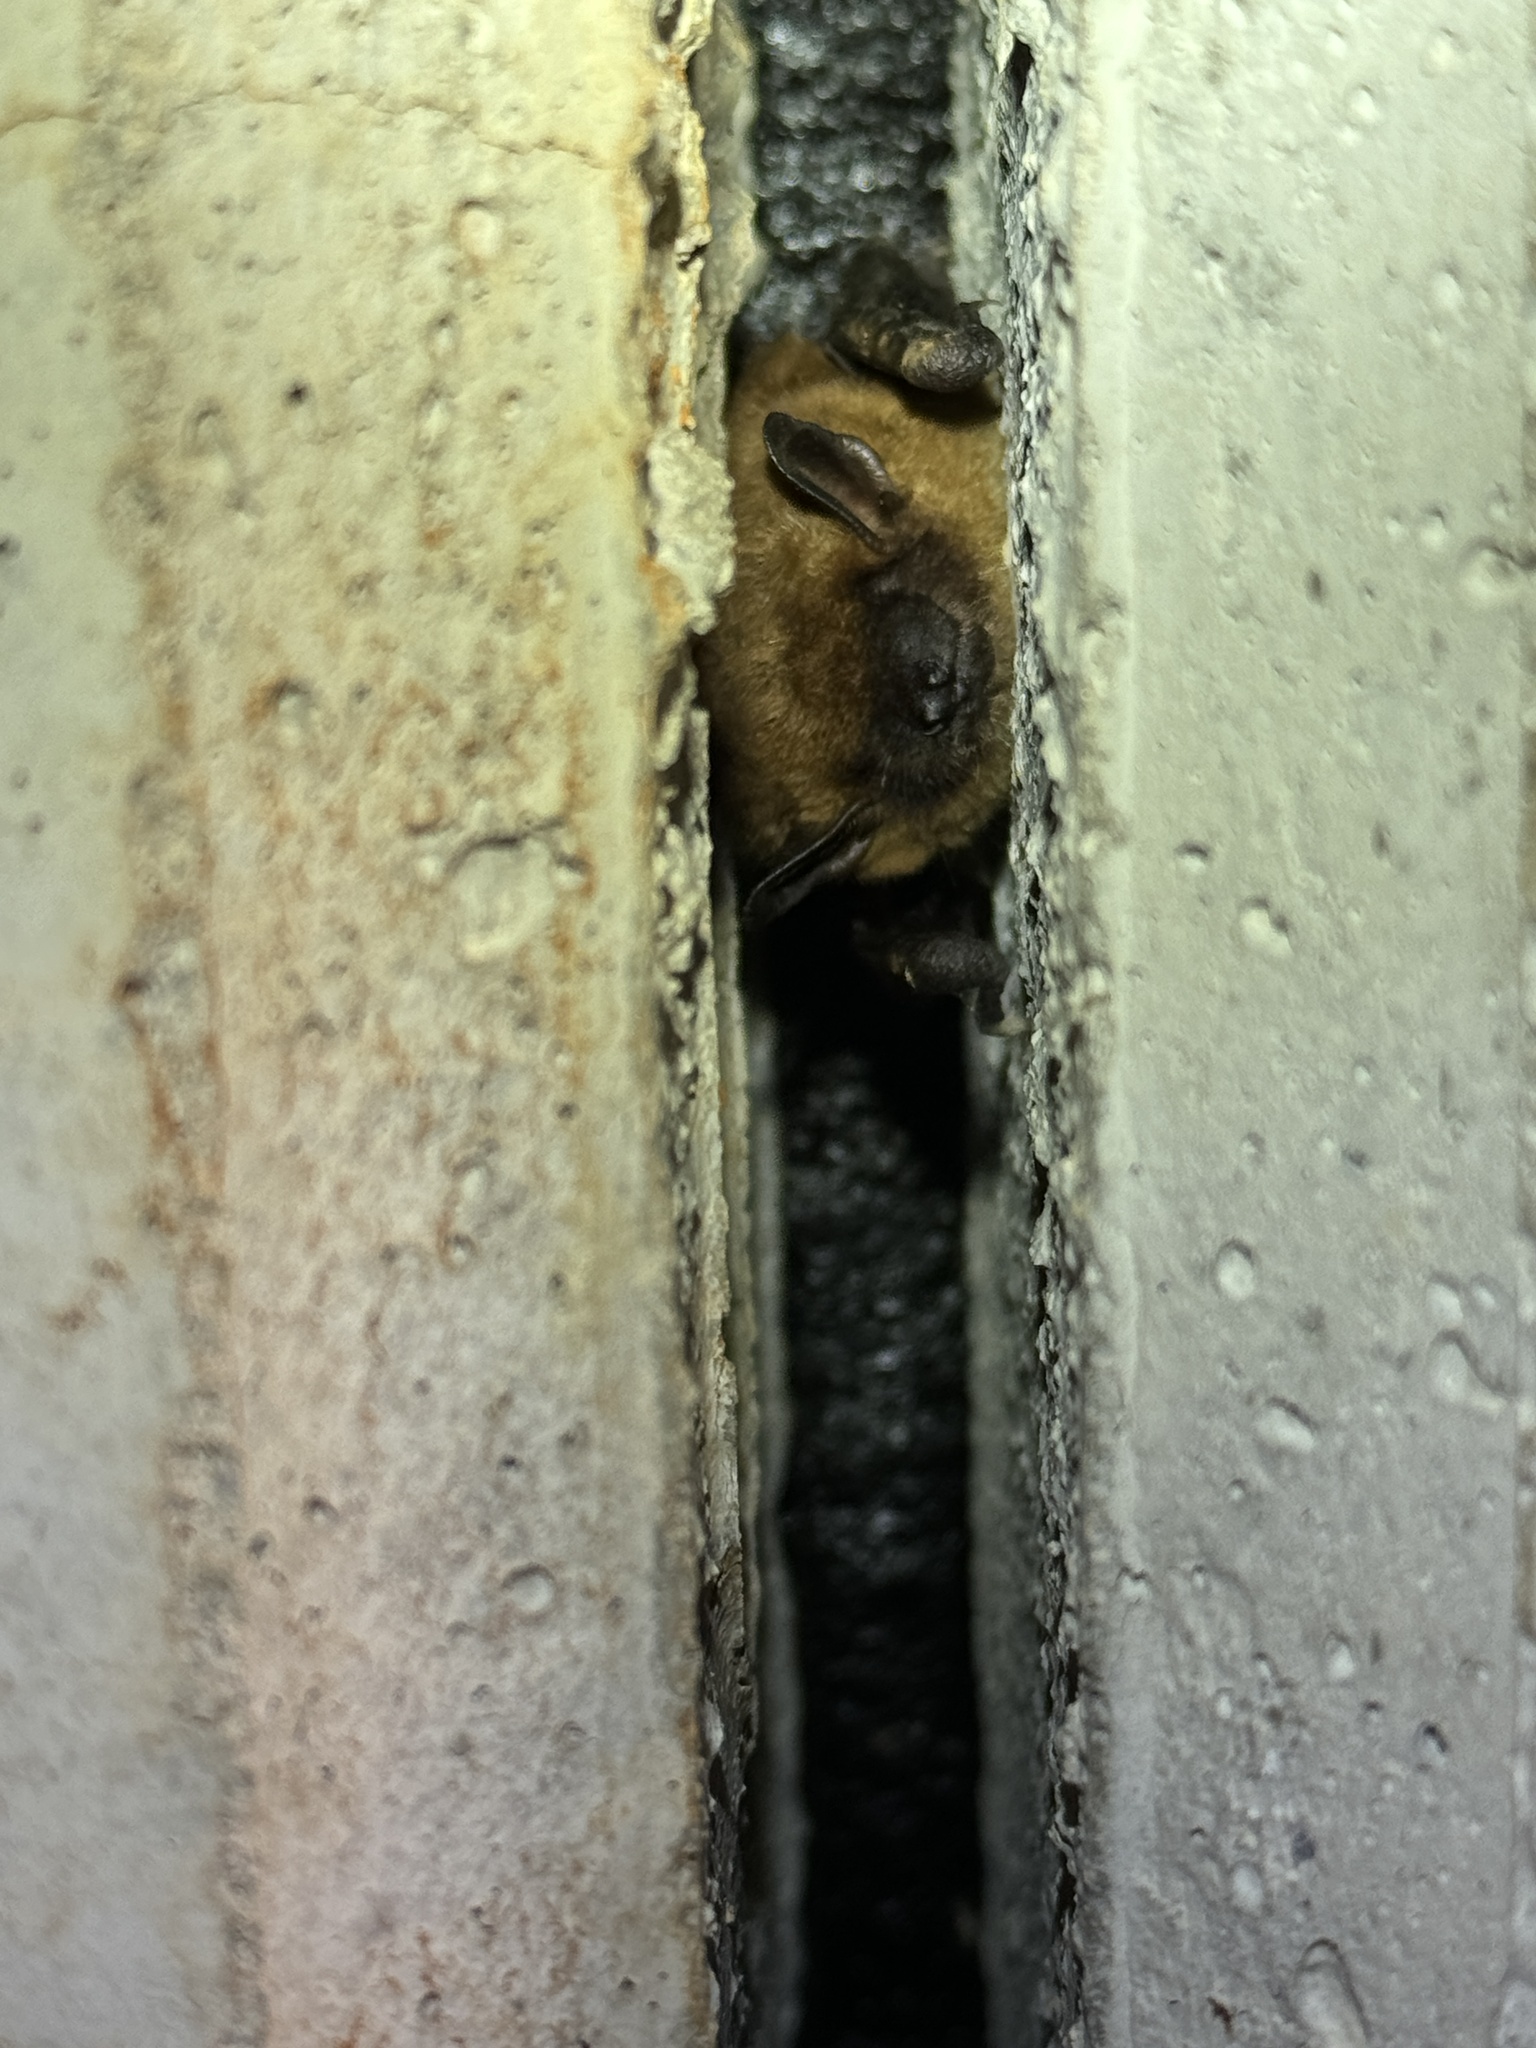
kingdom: Animalia
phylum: Chordata
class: Mammalia
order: Chiroptera
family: Vespertilionidae
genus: Eptesicus
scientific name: Eptesicus fuscus
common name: Big brown bat
